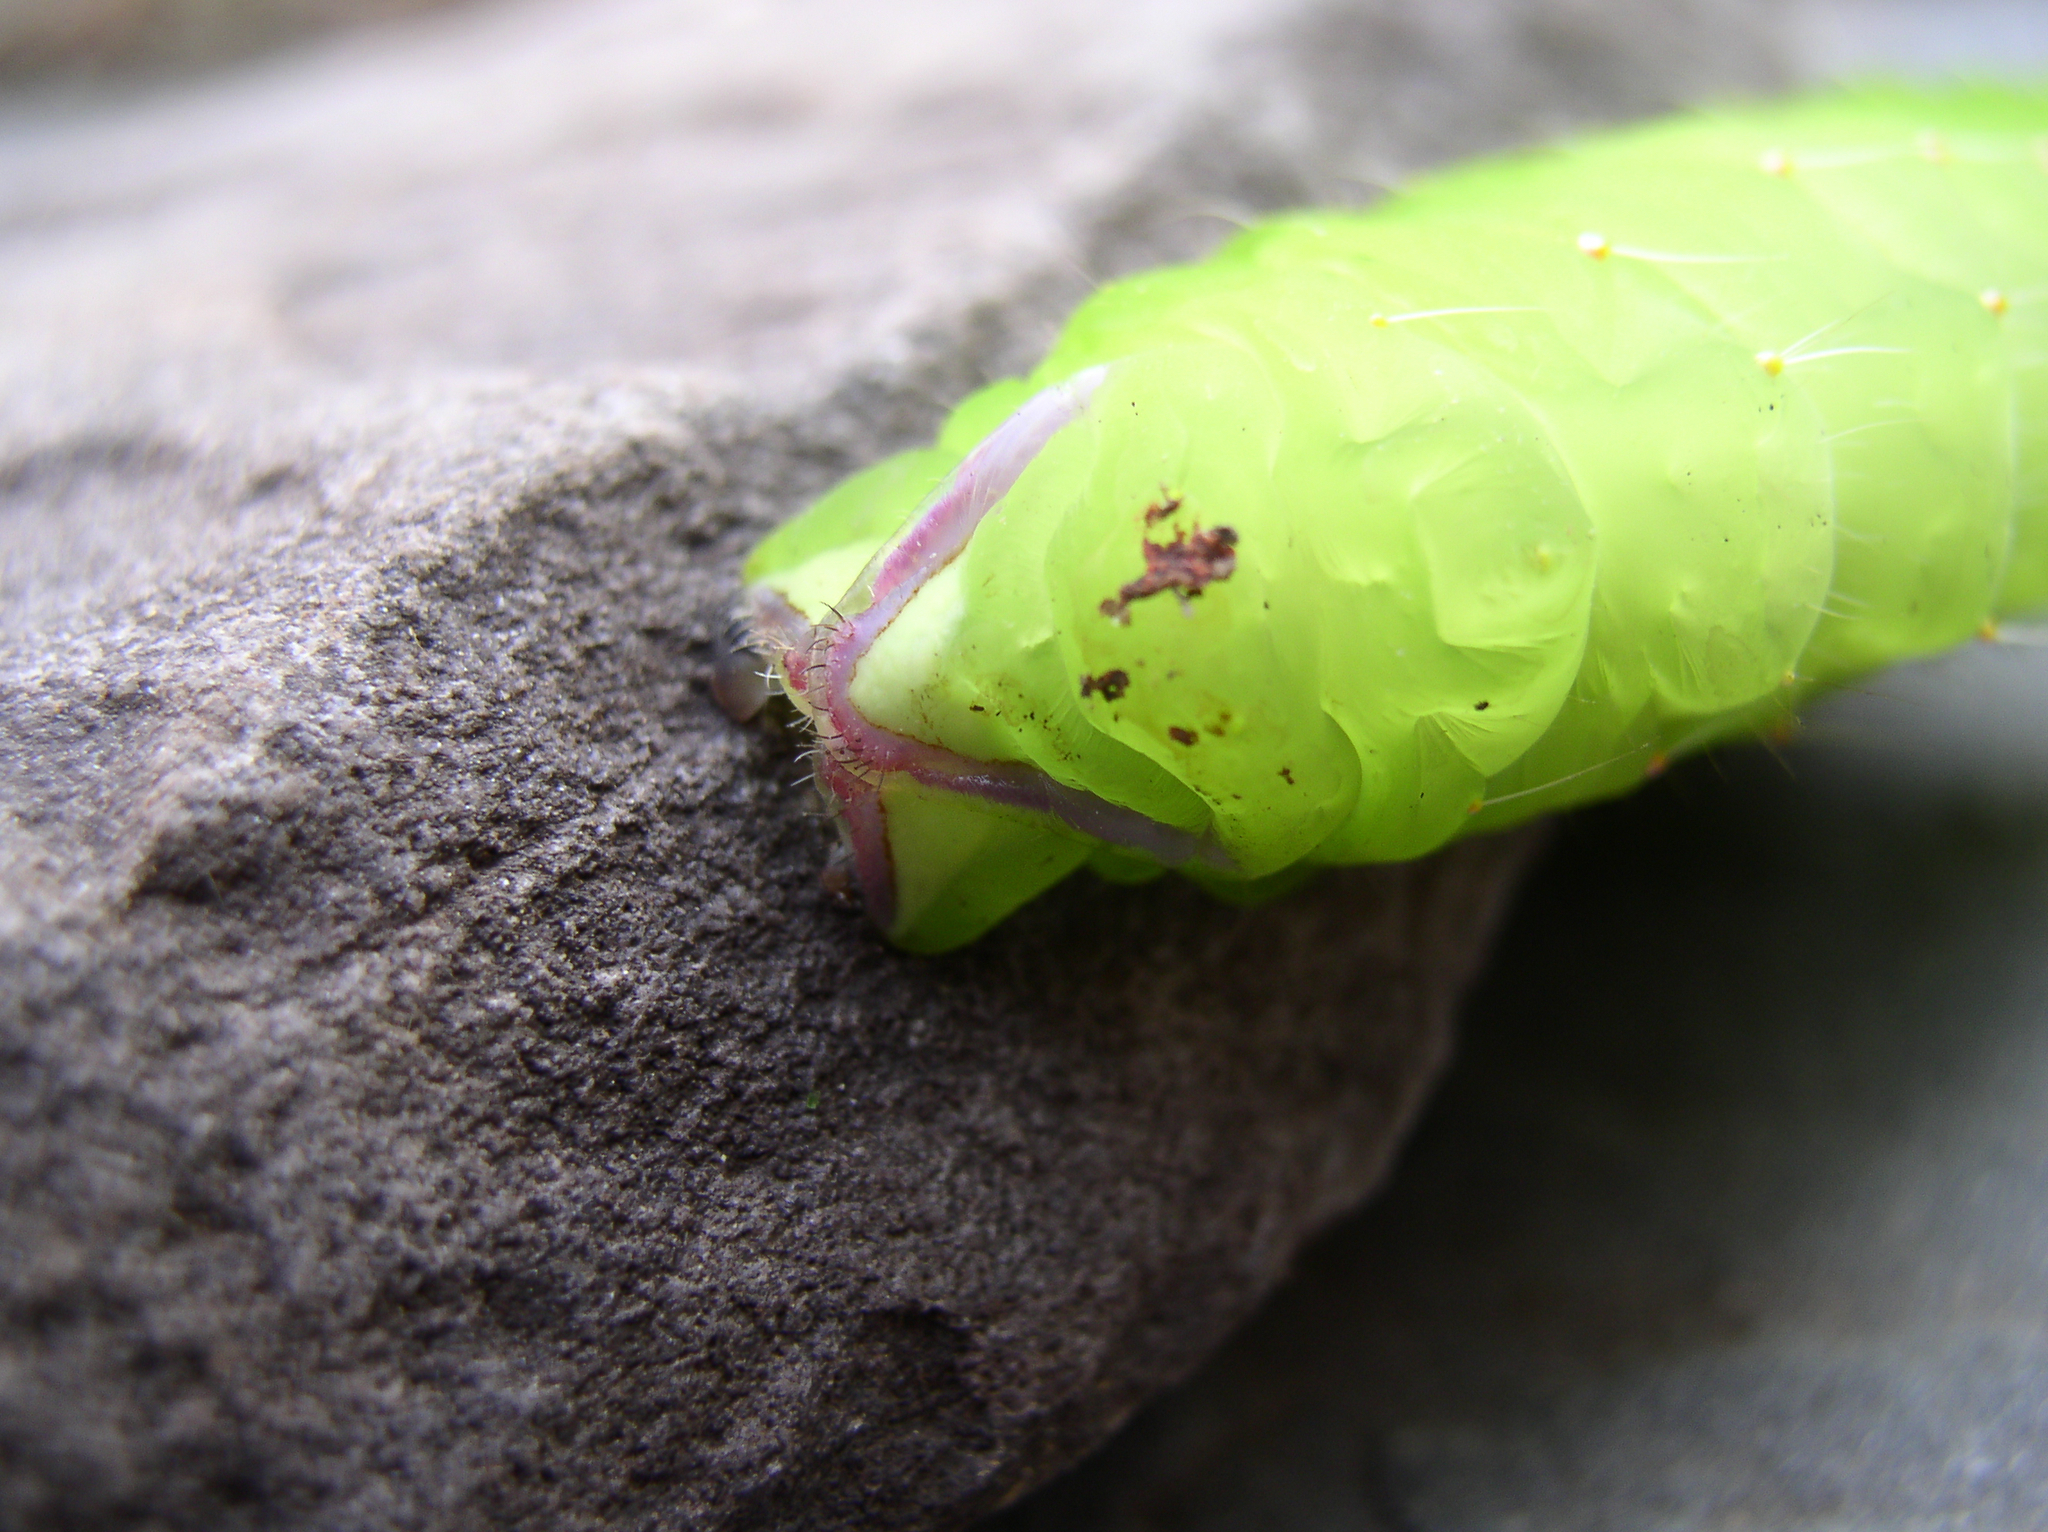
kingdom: Animalia
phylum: Arthropoda
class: Insecta
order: Lepidoptera
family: Saturniidae
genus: Antheraea
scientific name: Antheraea polyphemus
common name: Polyphemus moth
